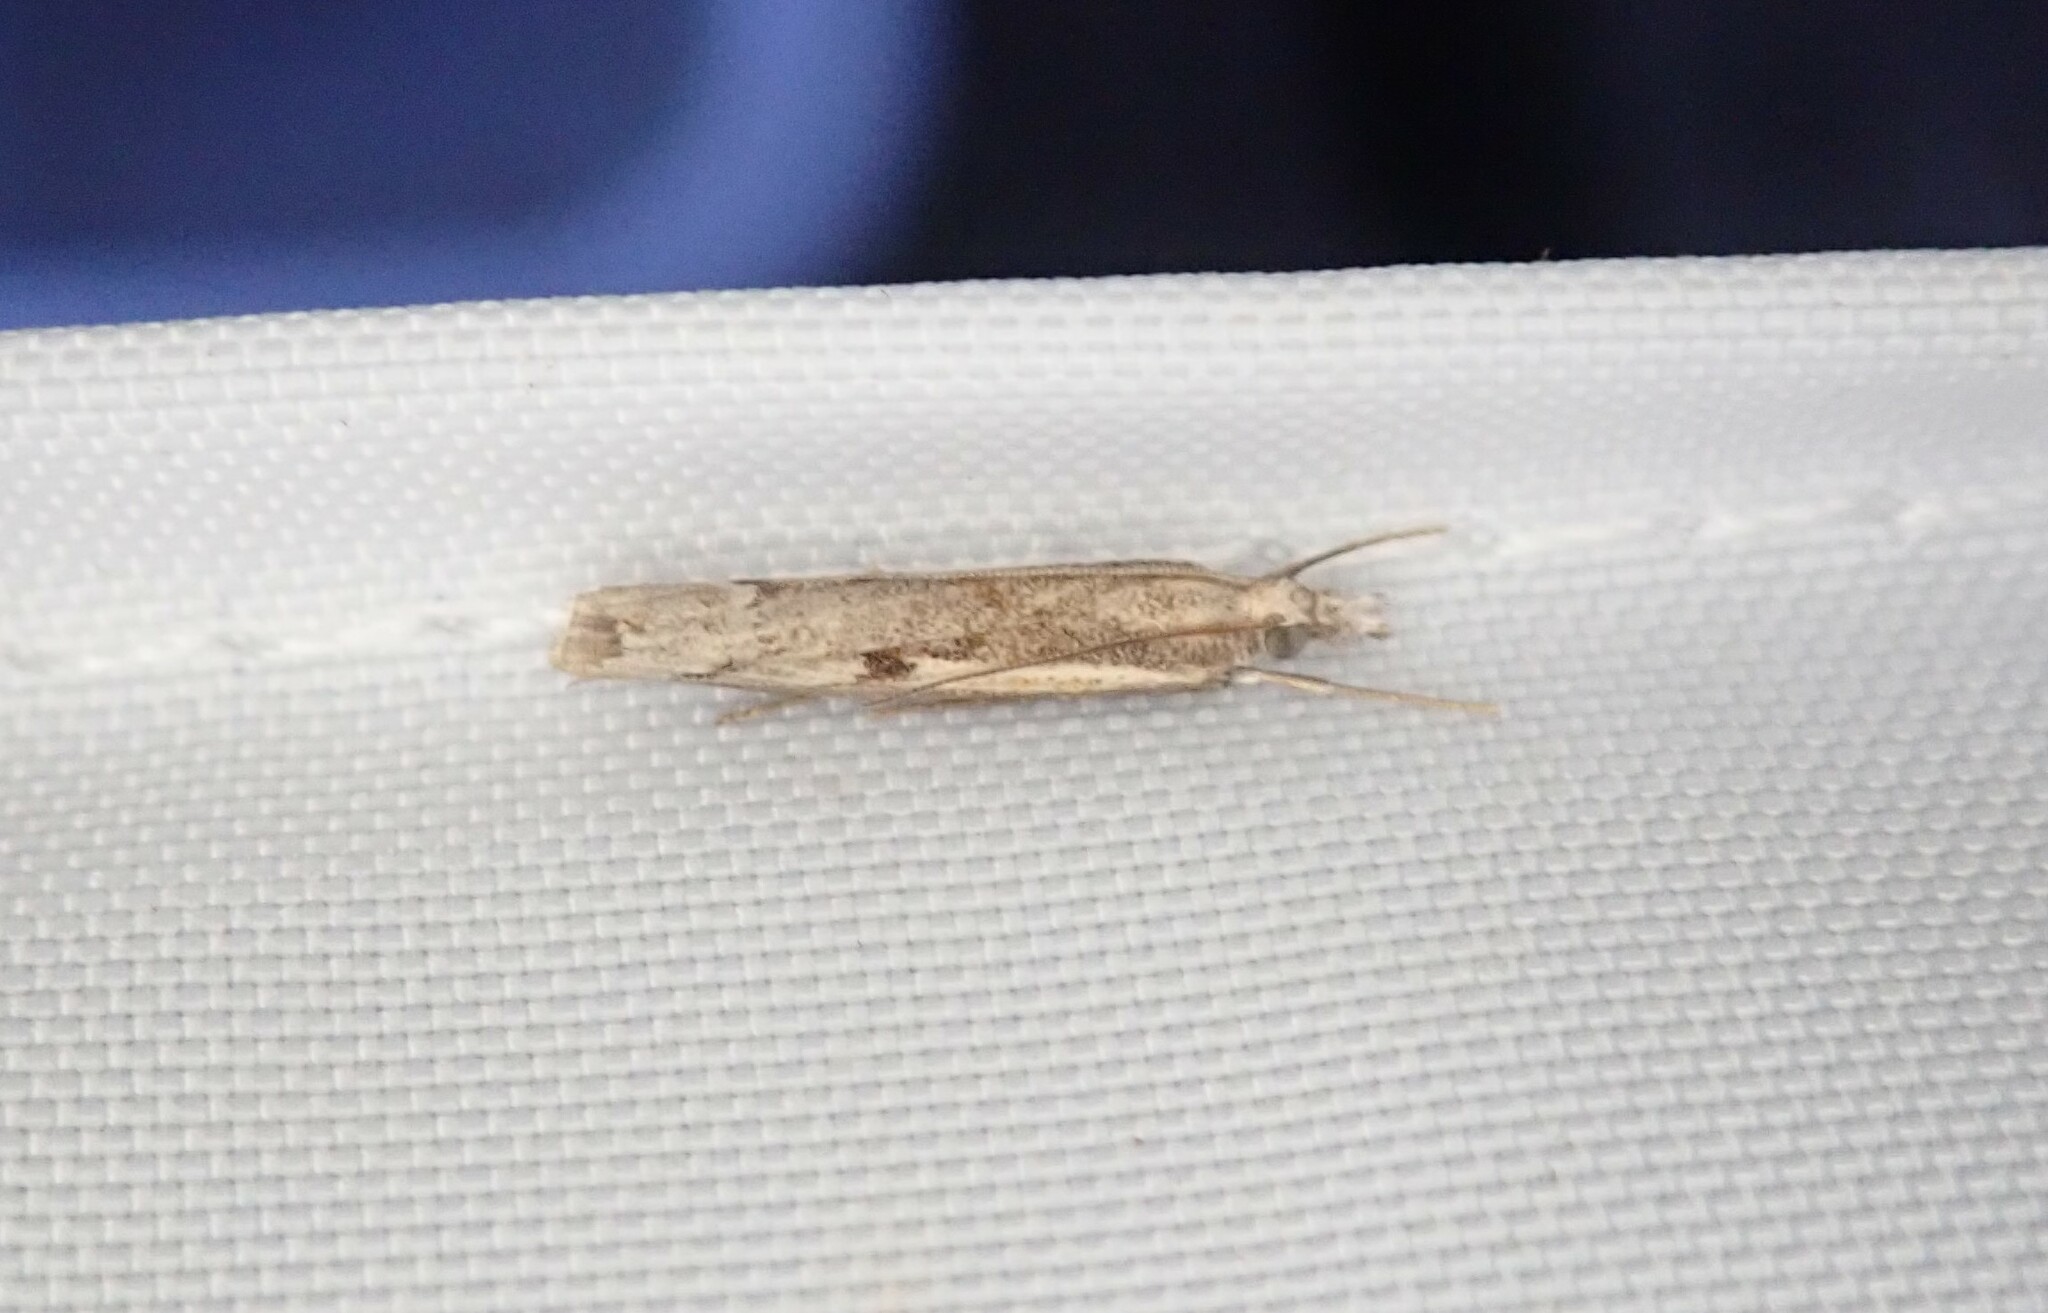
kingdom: Animalia
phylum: Arthropoda
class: Insecta
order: Lepidoptera
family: Crambidae
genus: Agriphila
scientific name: Agriphila geniculea
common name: Elbow-stripe grass-veneer
